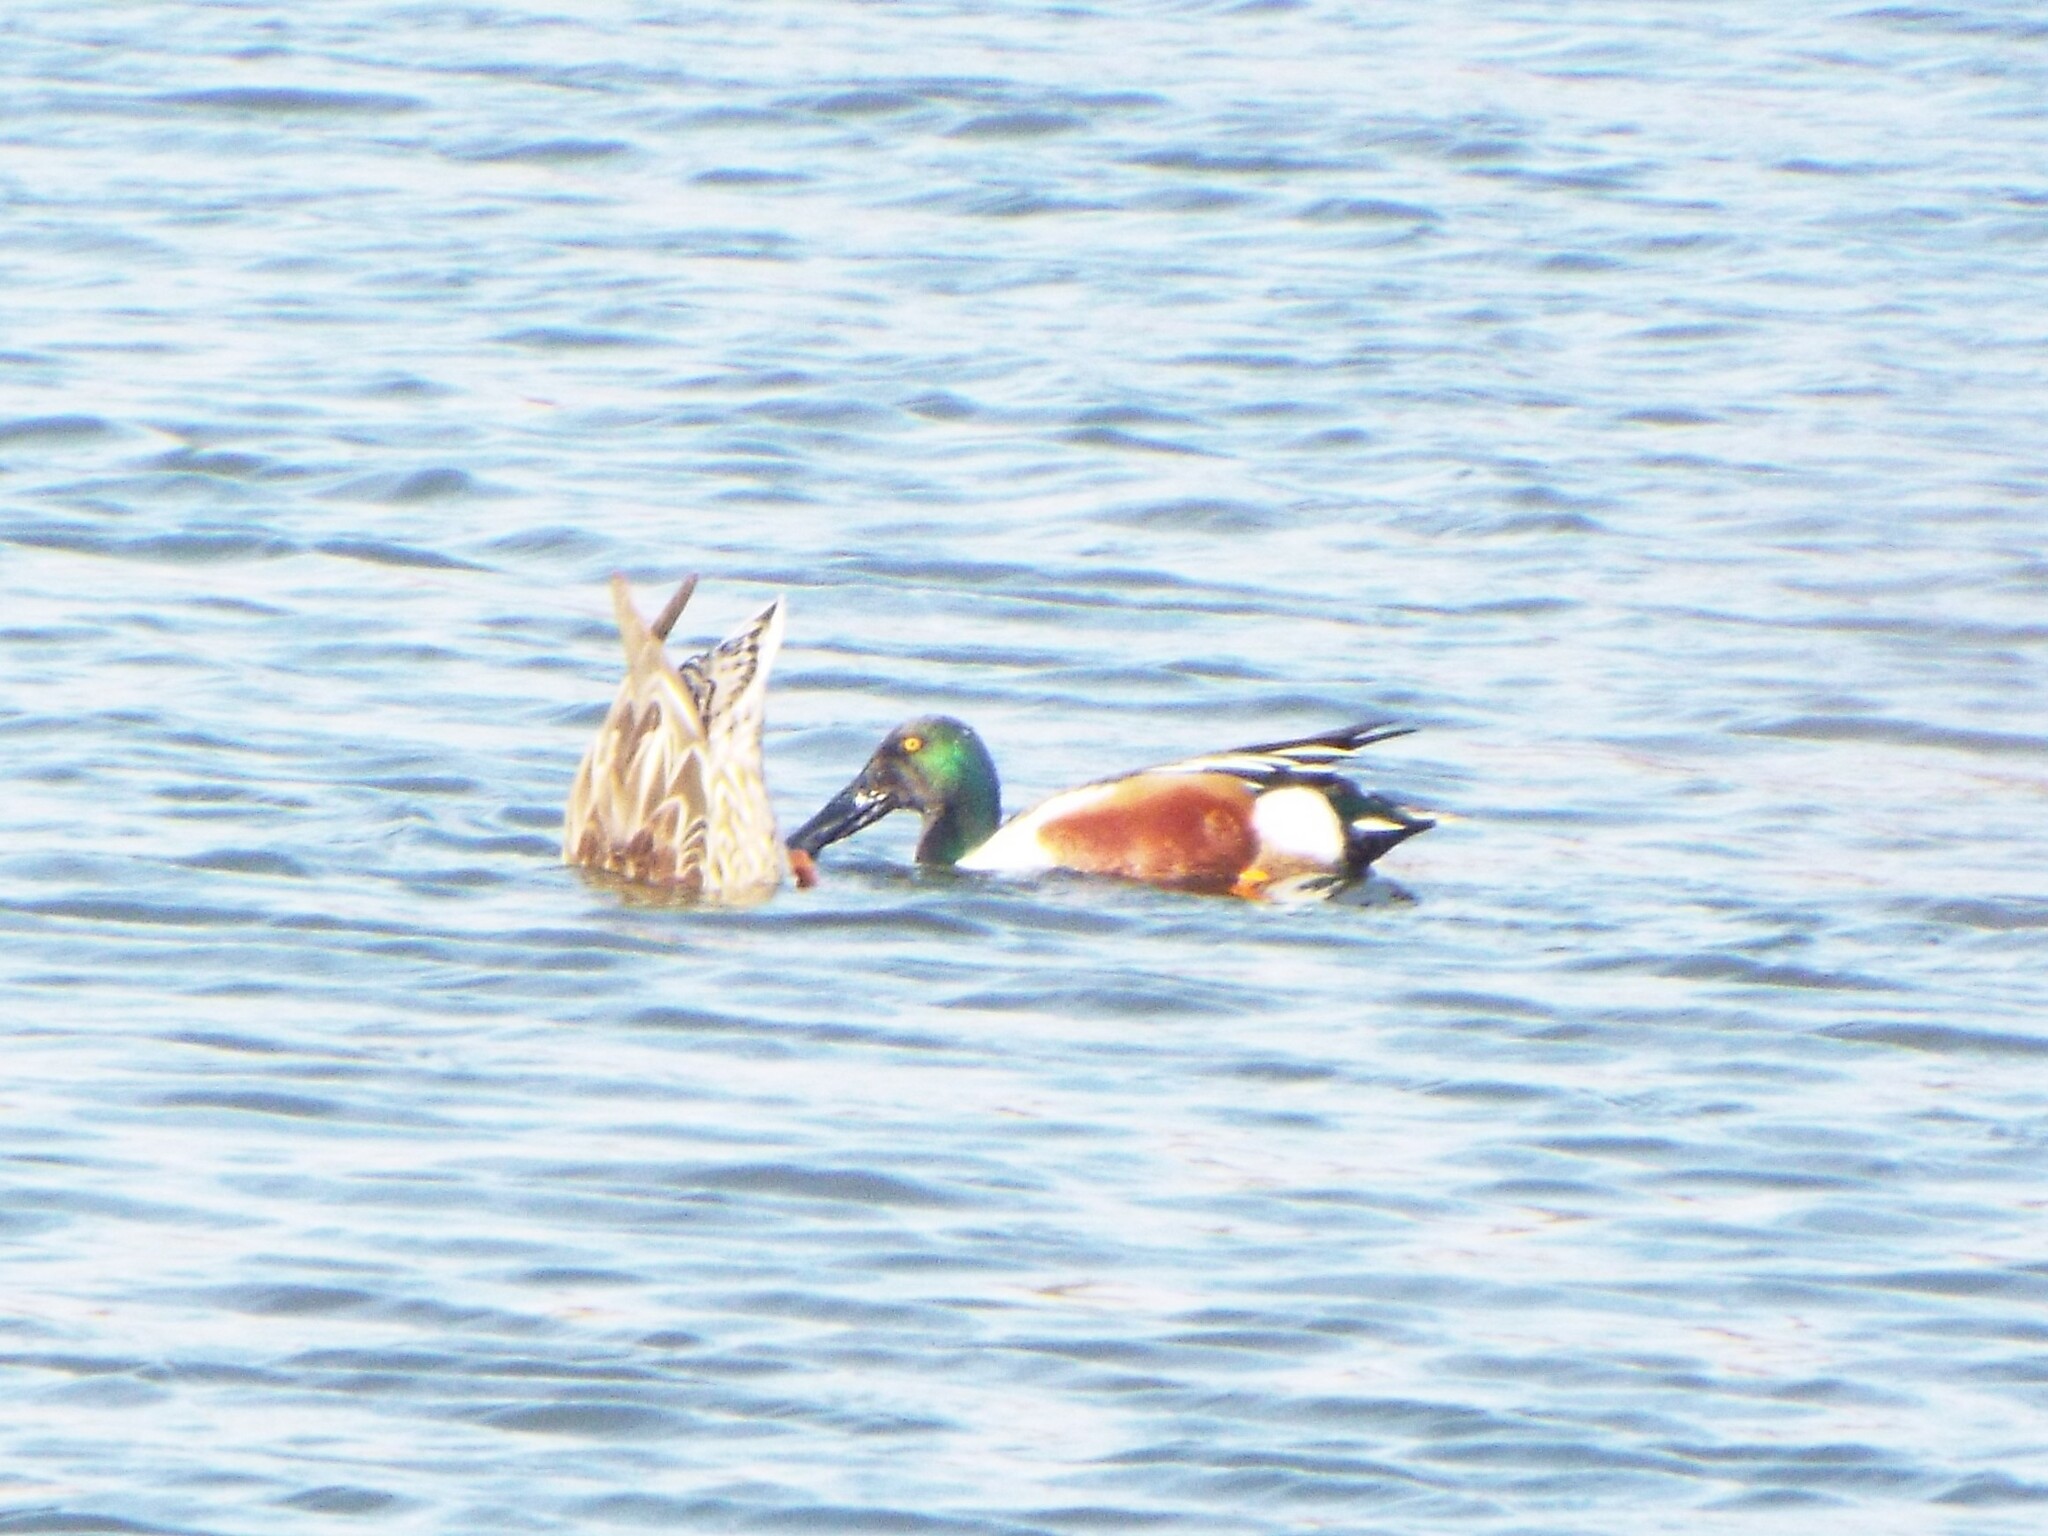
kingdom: Animalia
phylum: Chordata
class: Aves
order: Anseriformes
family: Anatidae
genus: Spatula
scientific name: Spatula clypeata
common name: Northern shoveler
